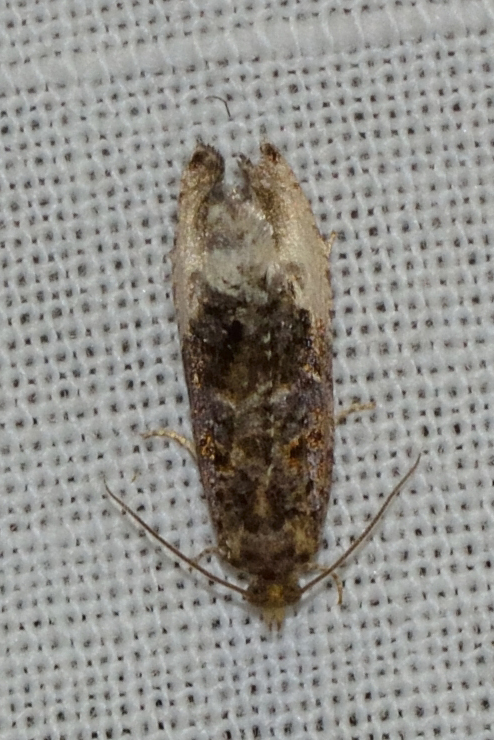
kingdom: Animalia
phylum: Arthropoda
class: Insecta
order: Lepidoptera
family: Tortricidae
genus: Hedya
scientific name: Hedya nubiferana
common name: Marbled orchard tortrix
